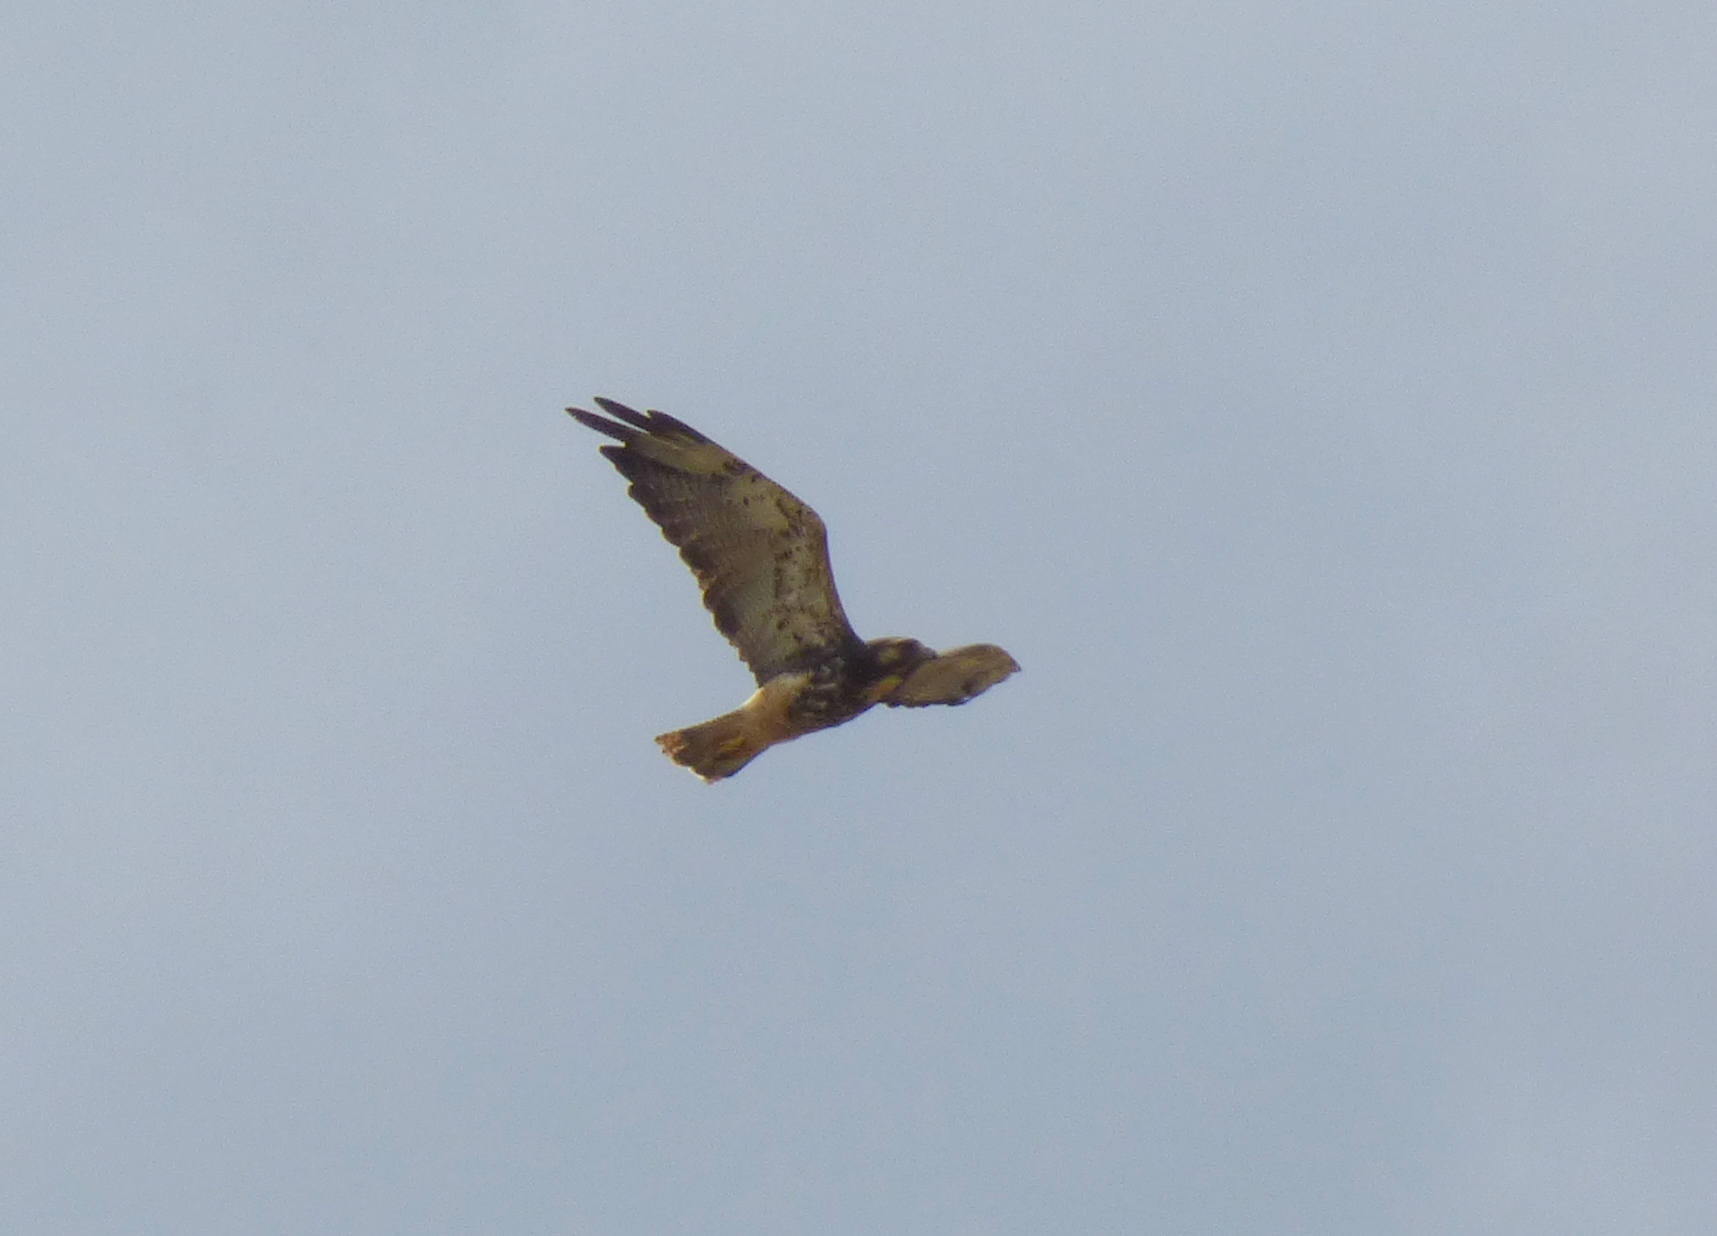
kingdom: Animalia
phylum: Chordata
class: Aves
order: Accipitriformes
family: Accipitridae
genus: Buteo
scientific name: Buteo albicaudatus
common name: White-tailed hawk
